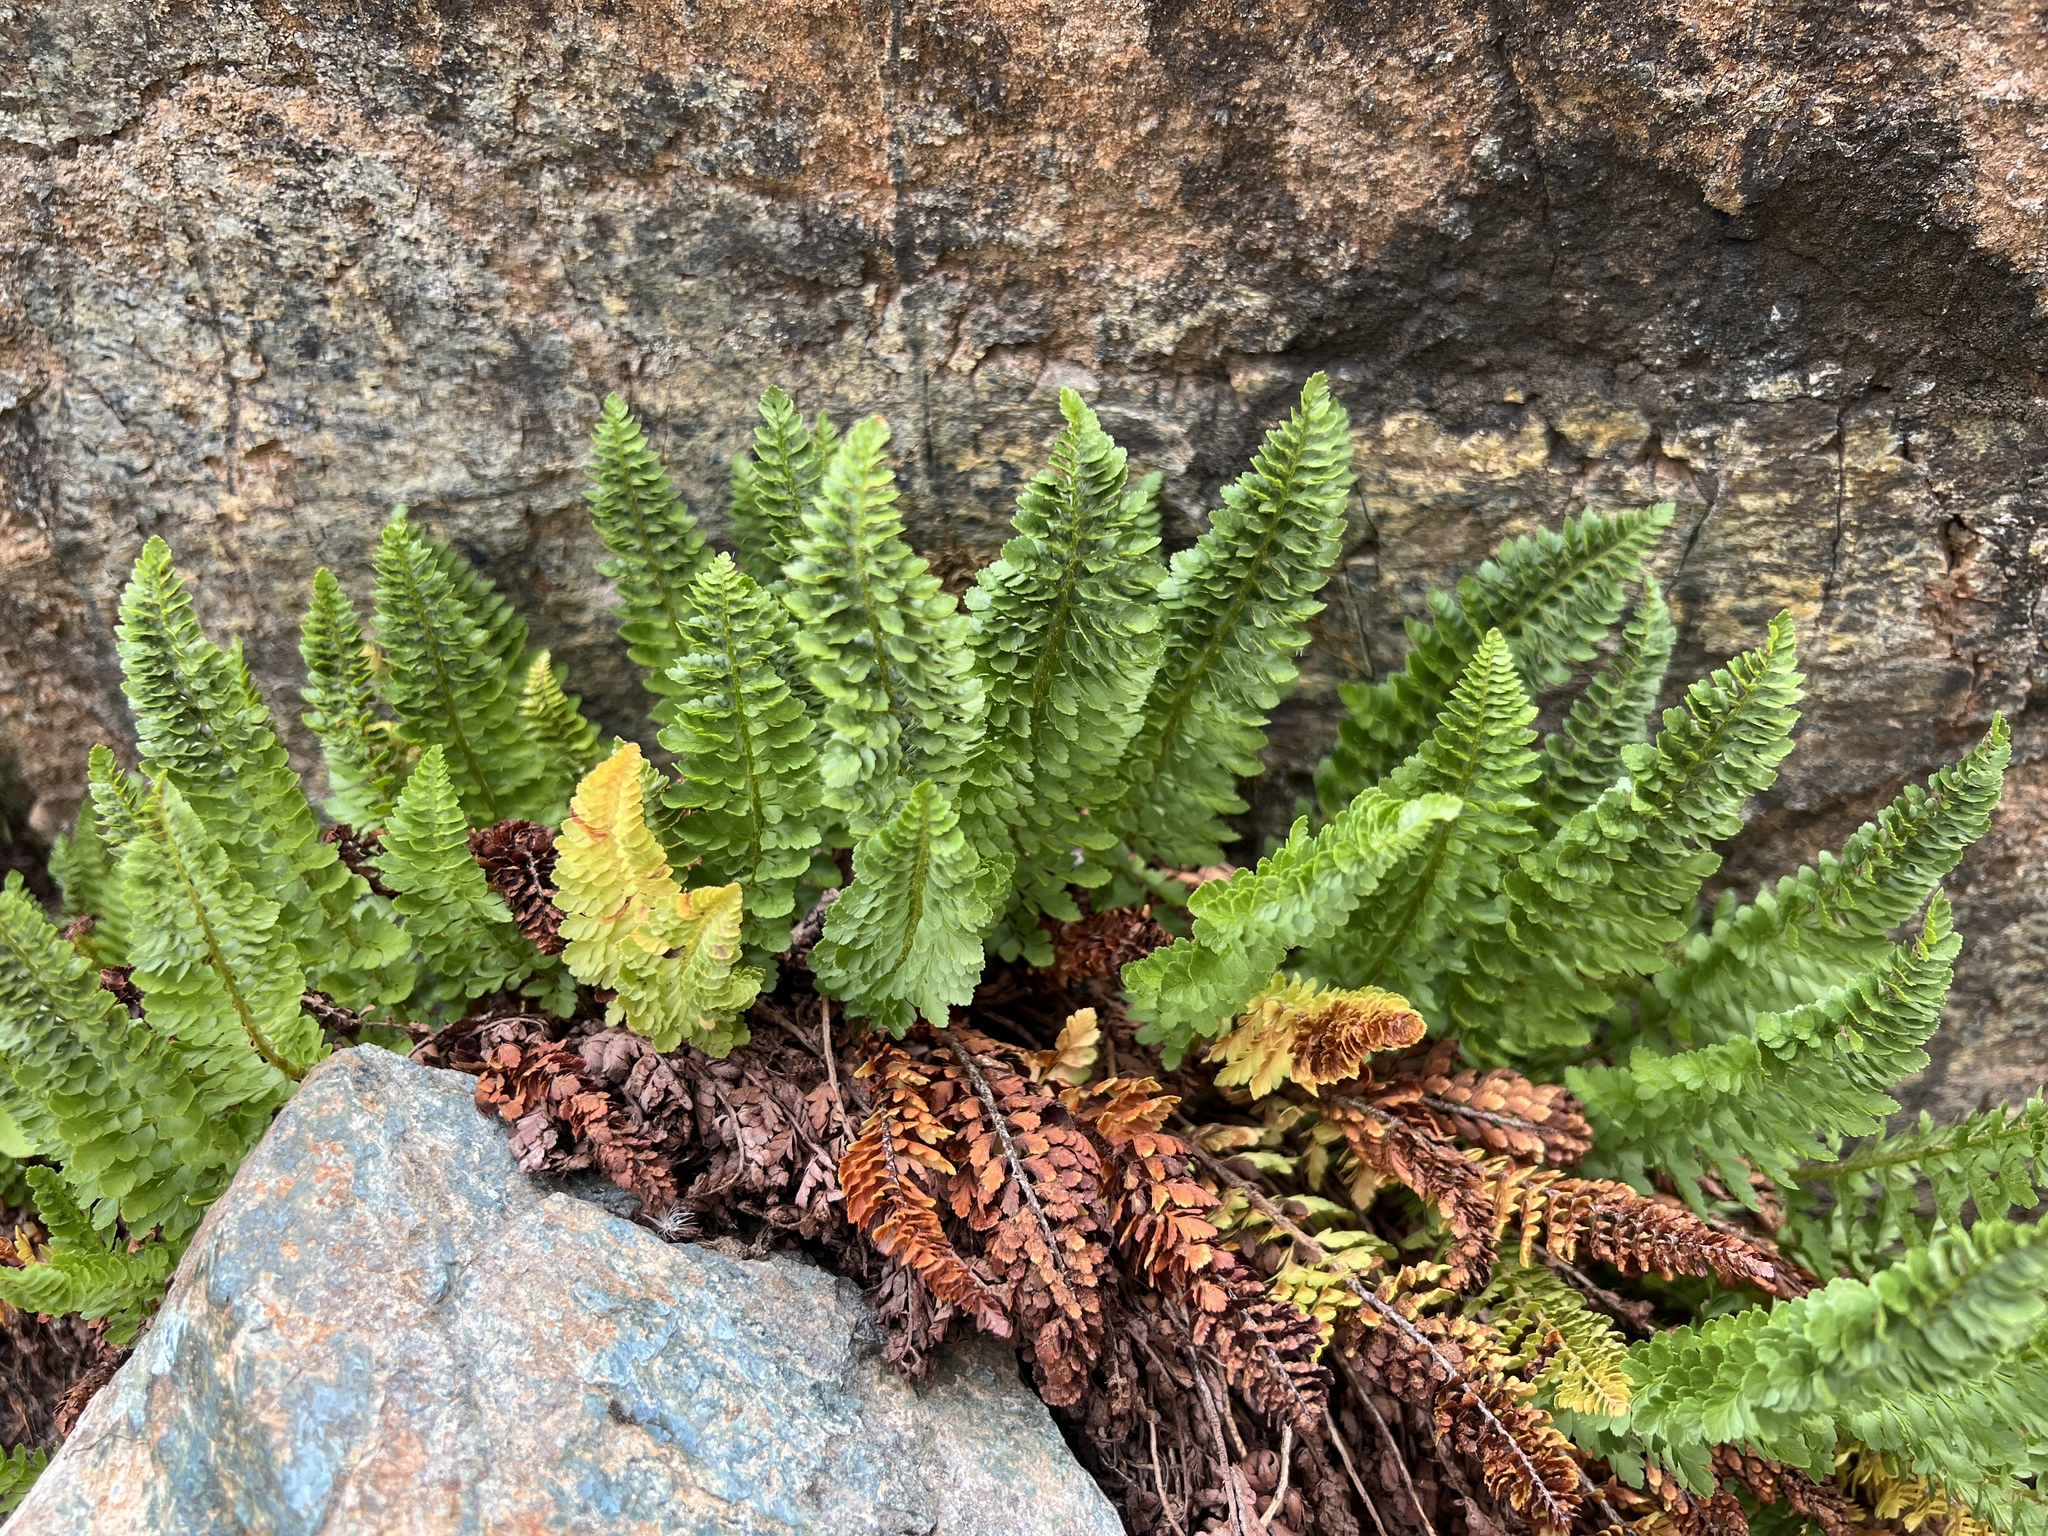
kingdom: Plantae
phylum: Tracheophyta
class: Polypodiopsida
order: Polypodiales
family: Dryopteridaceae
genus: Polystichum
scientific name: Polystichum lemmonii
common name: Lemmon's holly fern
